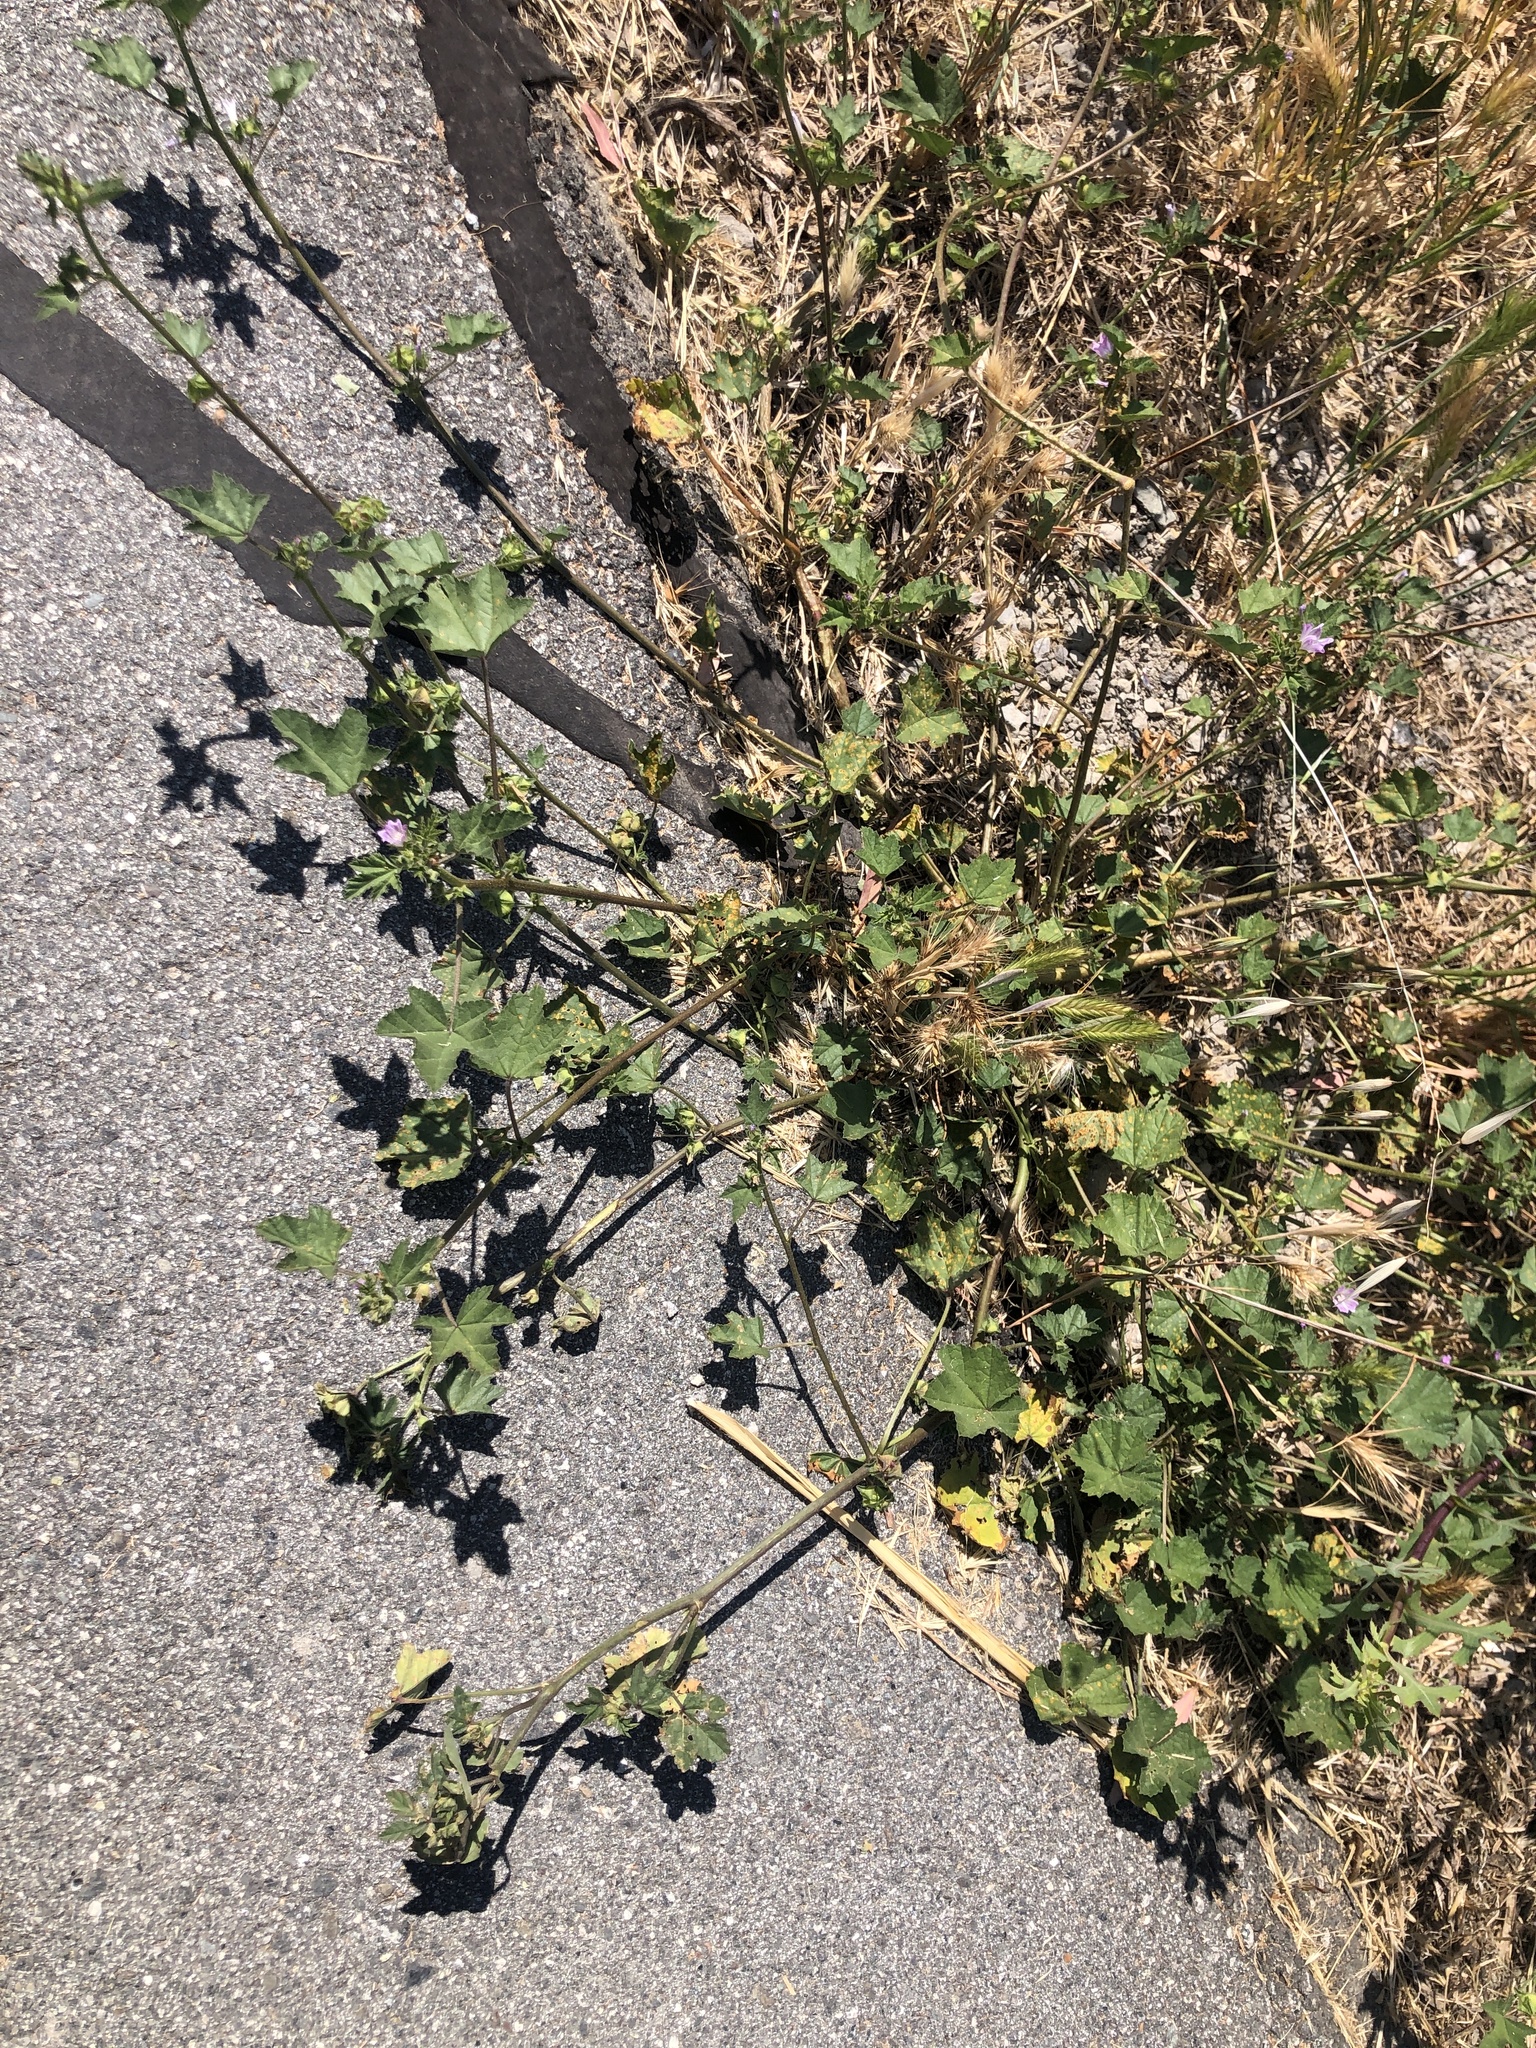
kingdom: Fungi
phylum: Basidiomycota
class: Pucciniomycetes
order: Pucciniales
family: Pucciniaceae
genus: Puccinia
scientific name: Puccinia malvacearum
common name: Hollyhock rust
